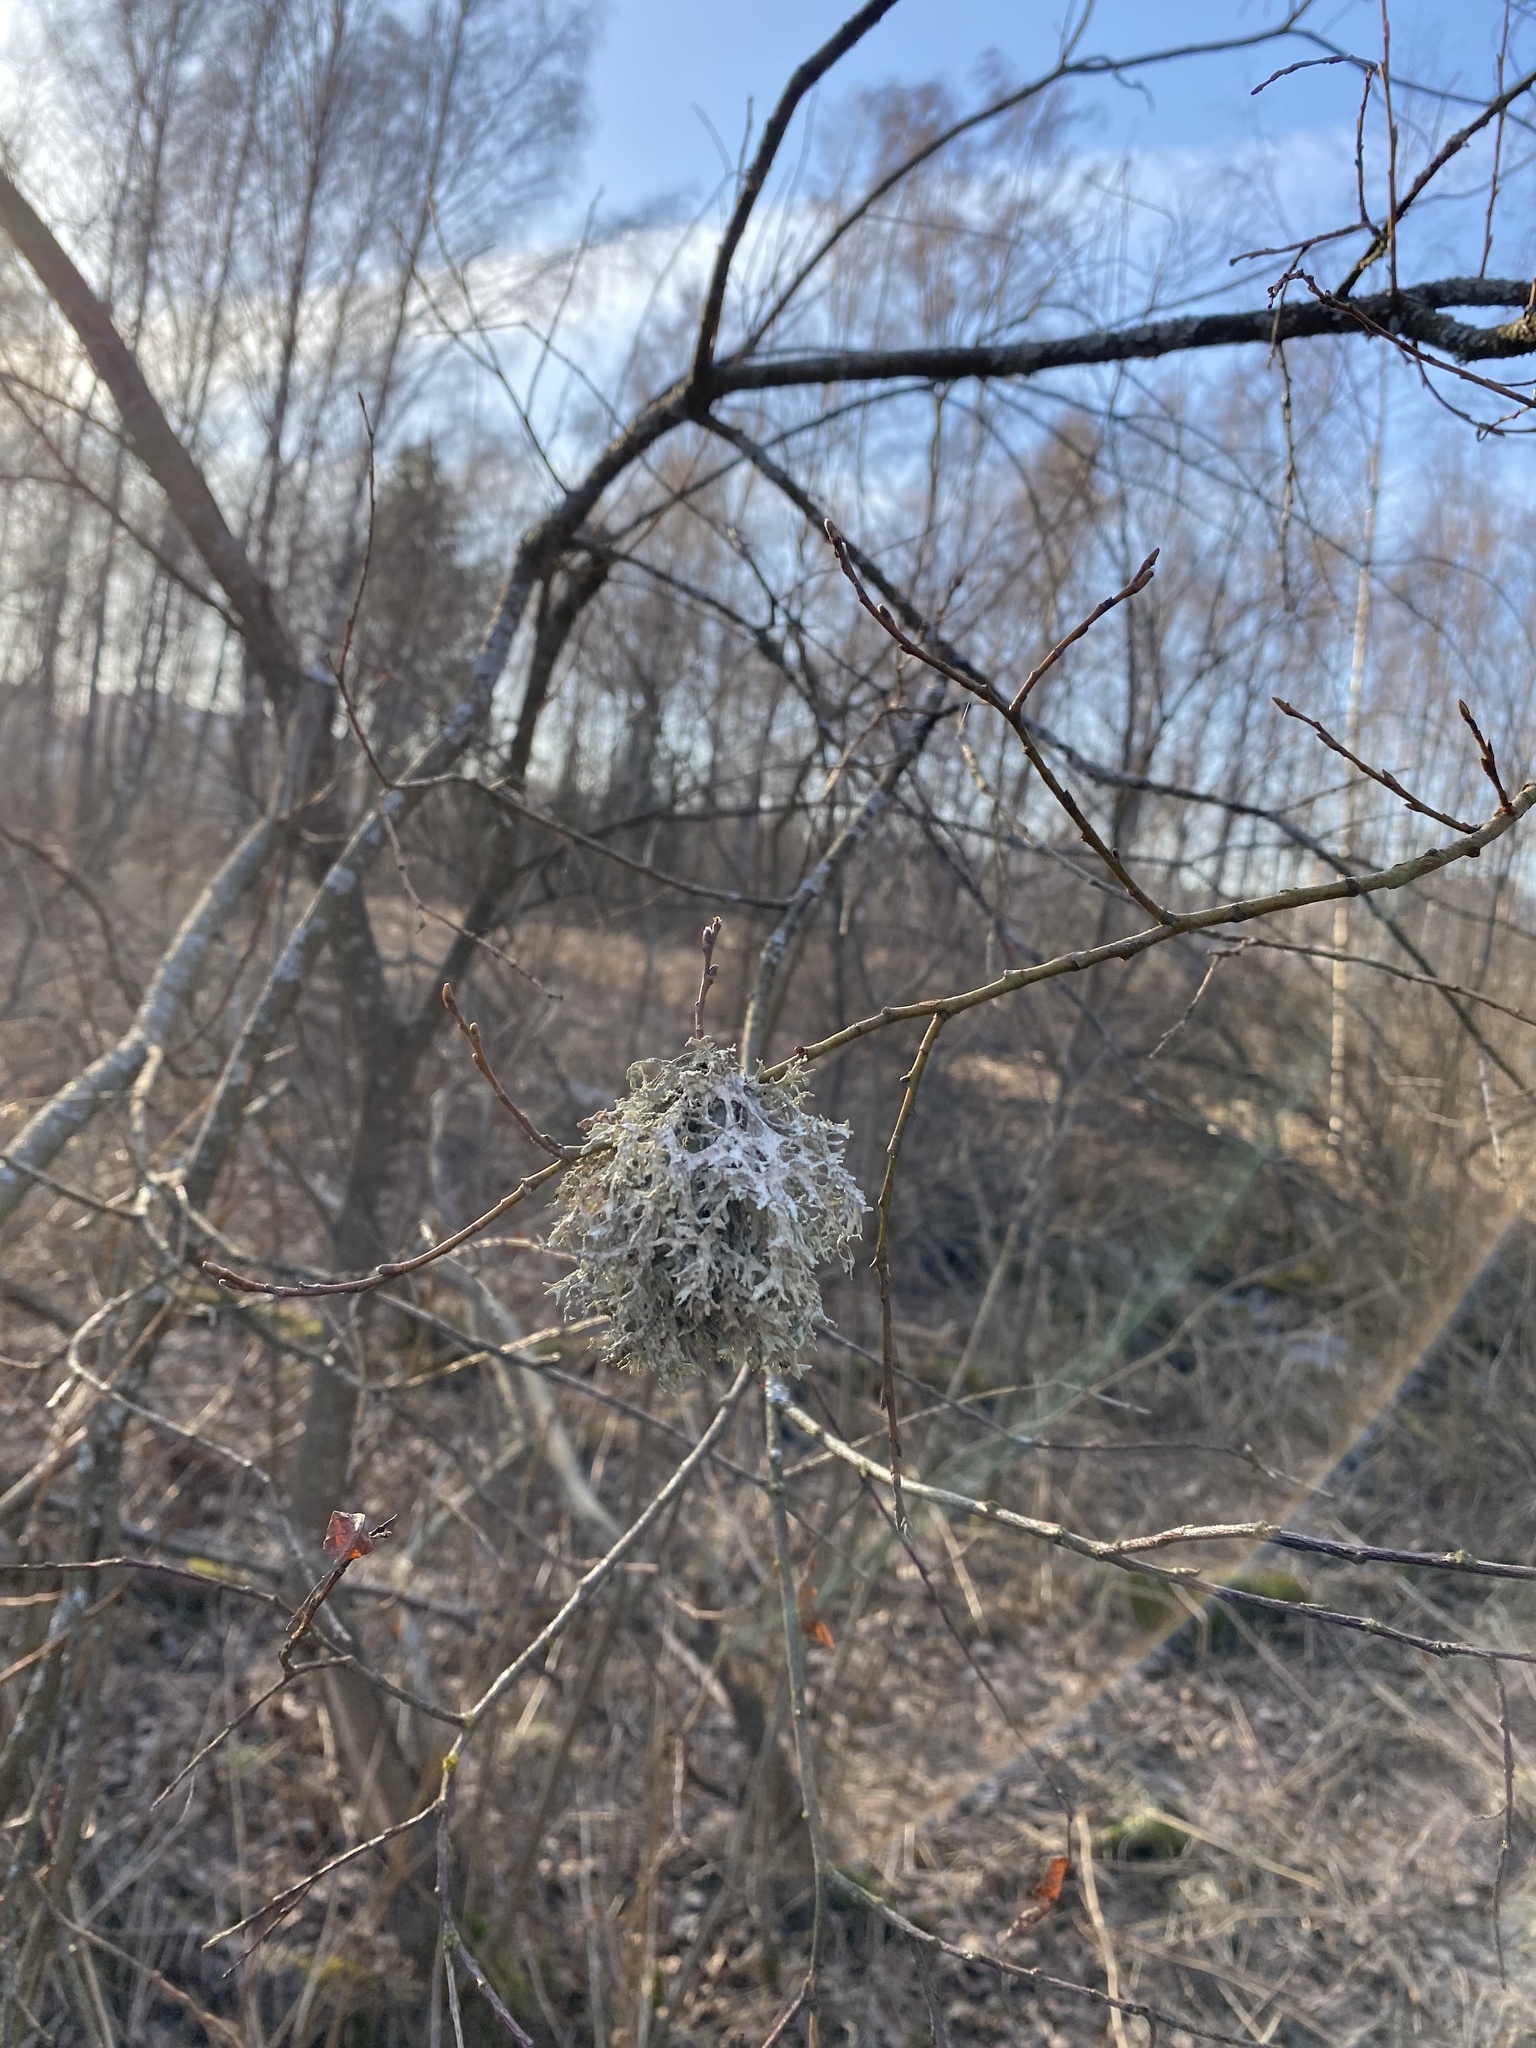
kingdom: Fungi
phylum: Ascomycota
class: Lecanoromycetes
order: Lecanorales
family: Parmeliaceae
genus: Evernia
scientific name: Evernia prunastri
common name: Oak moss
